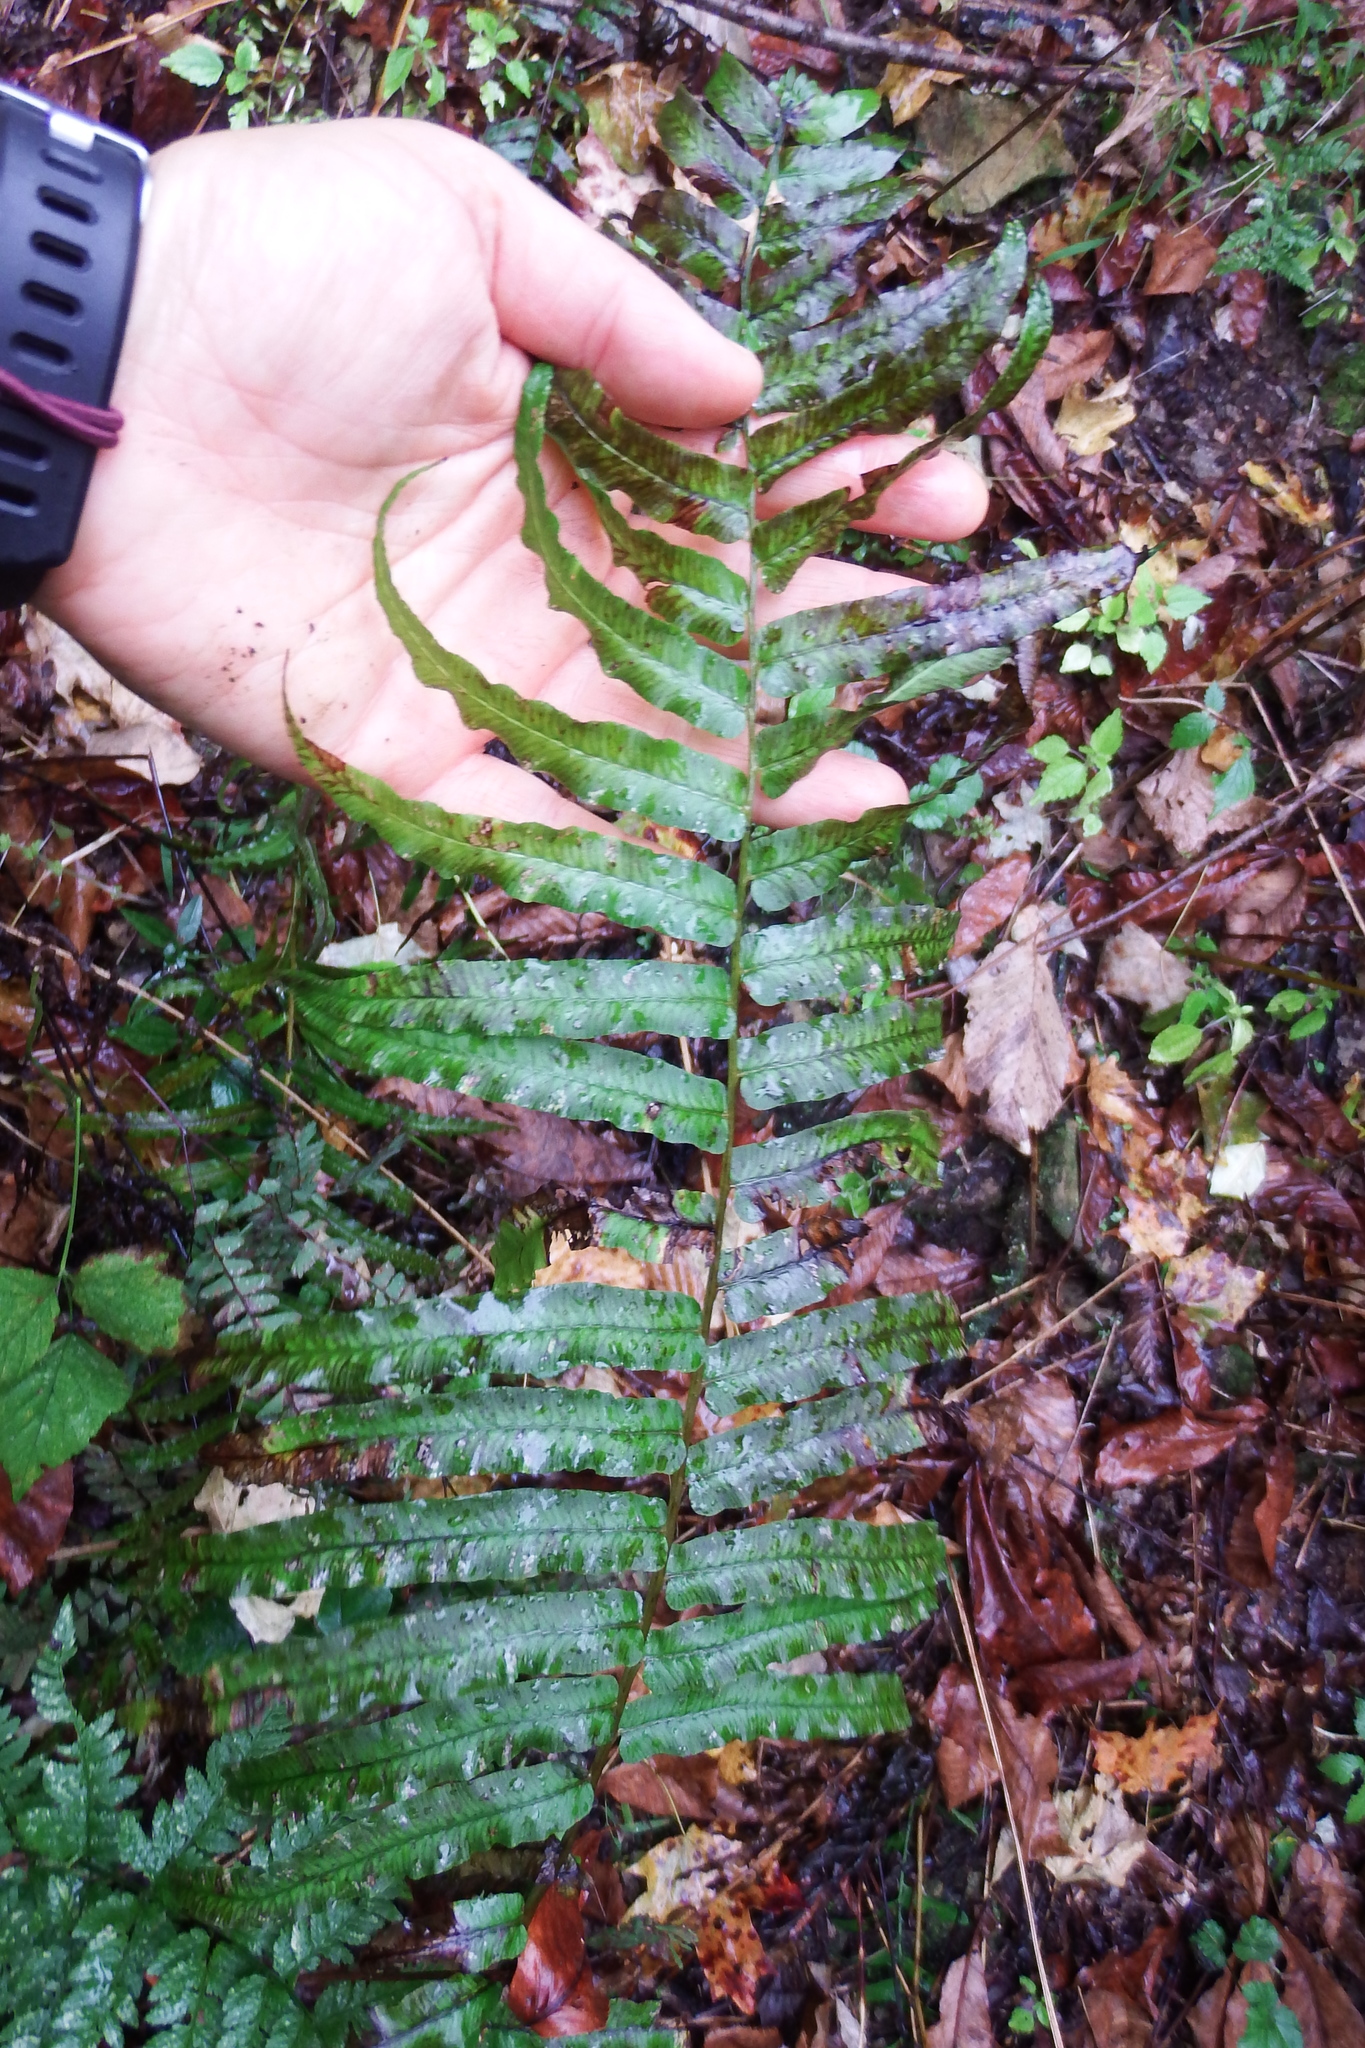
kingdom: Plantae
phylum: Tracheophyta
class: Polypodiopsida
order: Polypodiales
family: Diplaziopsidaceae
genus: Homalosorus
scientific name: Homalosorus pycnocarpos
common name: Glade fern
